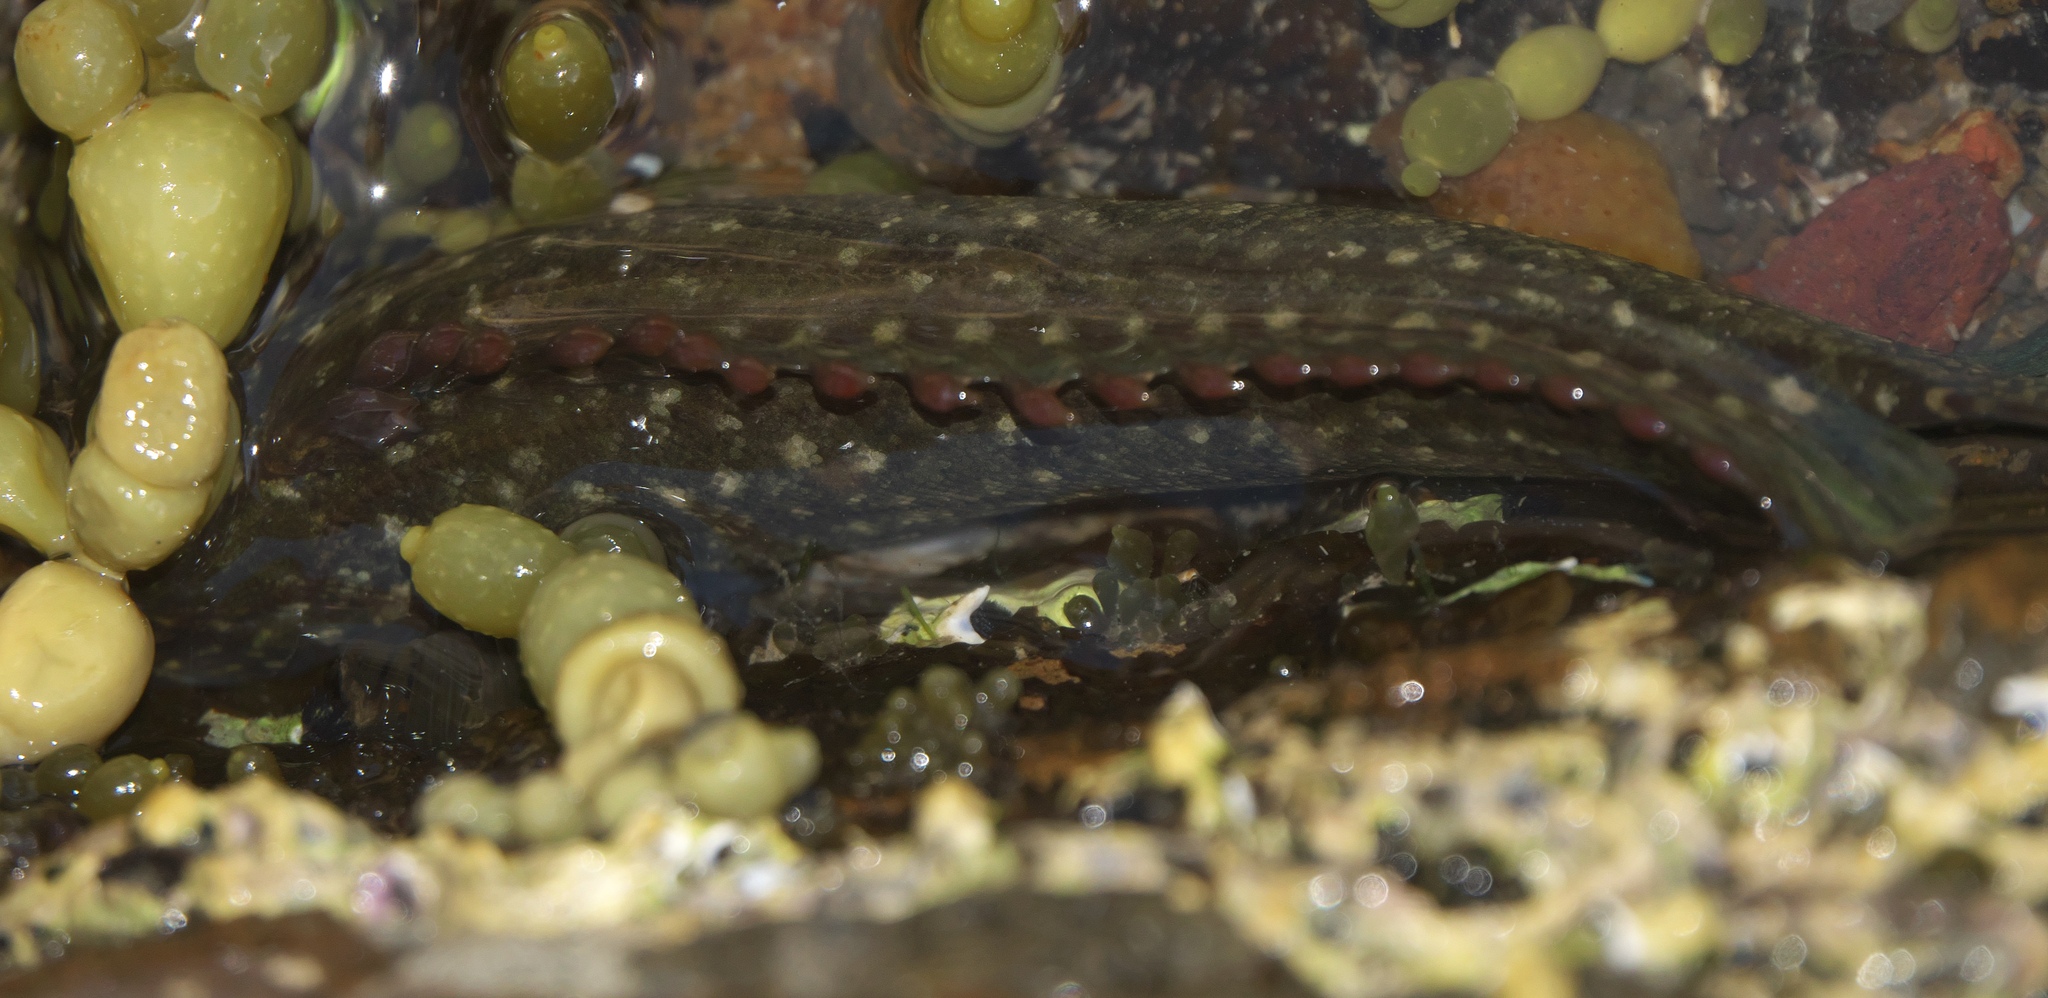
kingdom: Animalia
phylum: Chordata
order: Perciformes
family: Plesiopidae
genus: Acanthoclinus
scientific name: Acanthoclinus fuscus
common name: Olive rockfish
